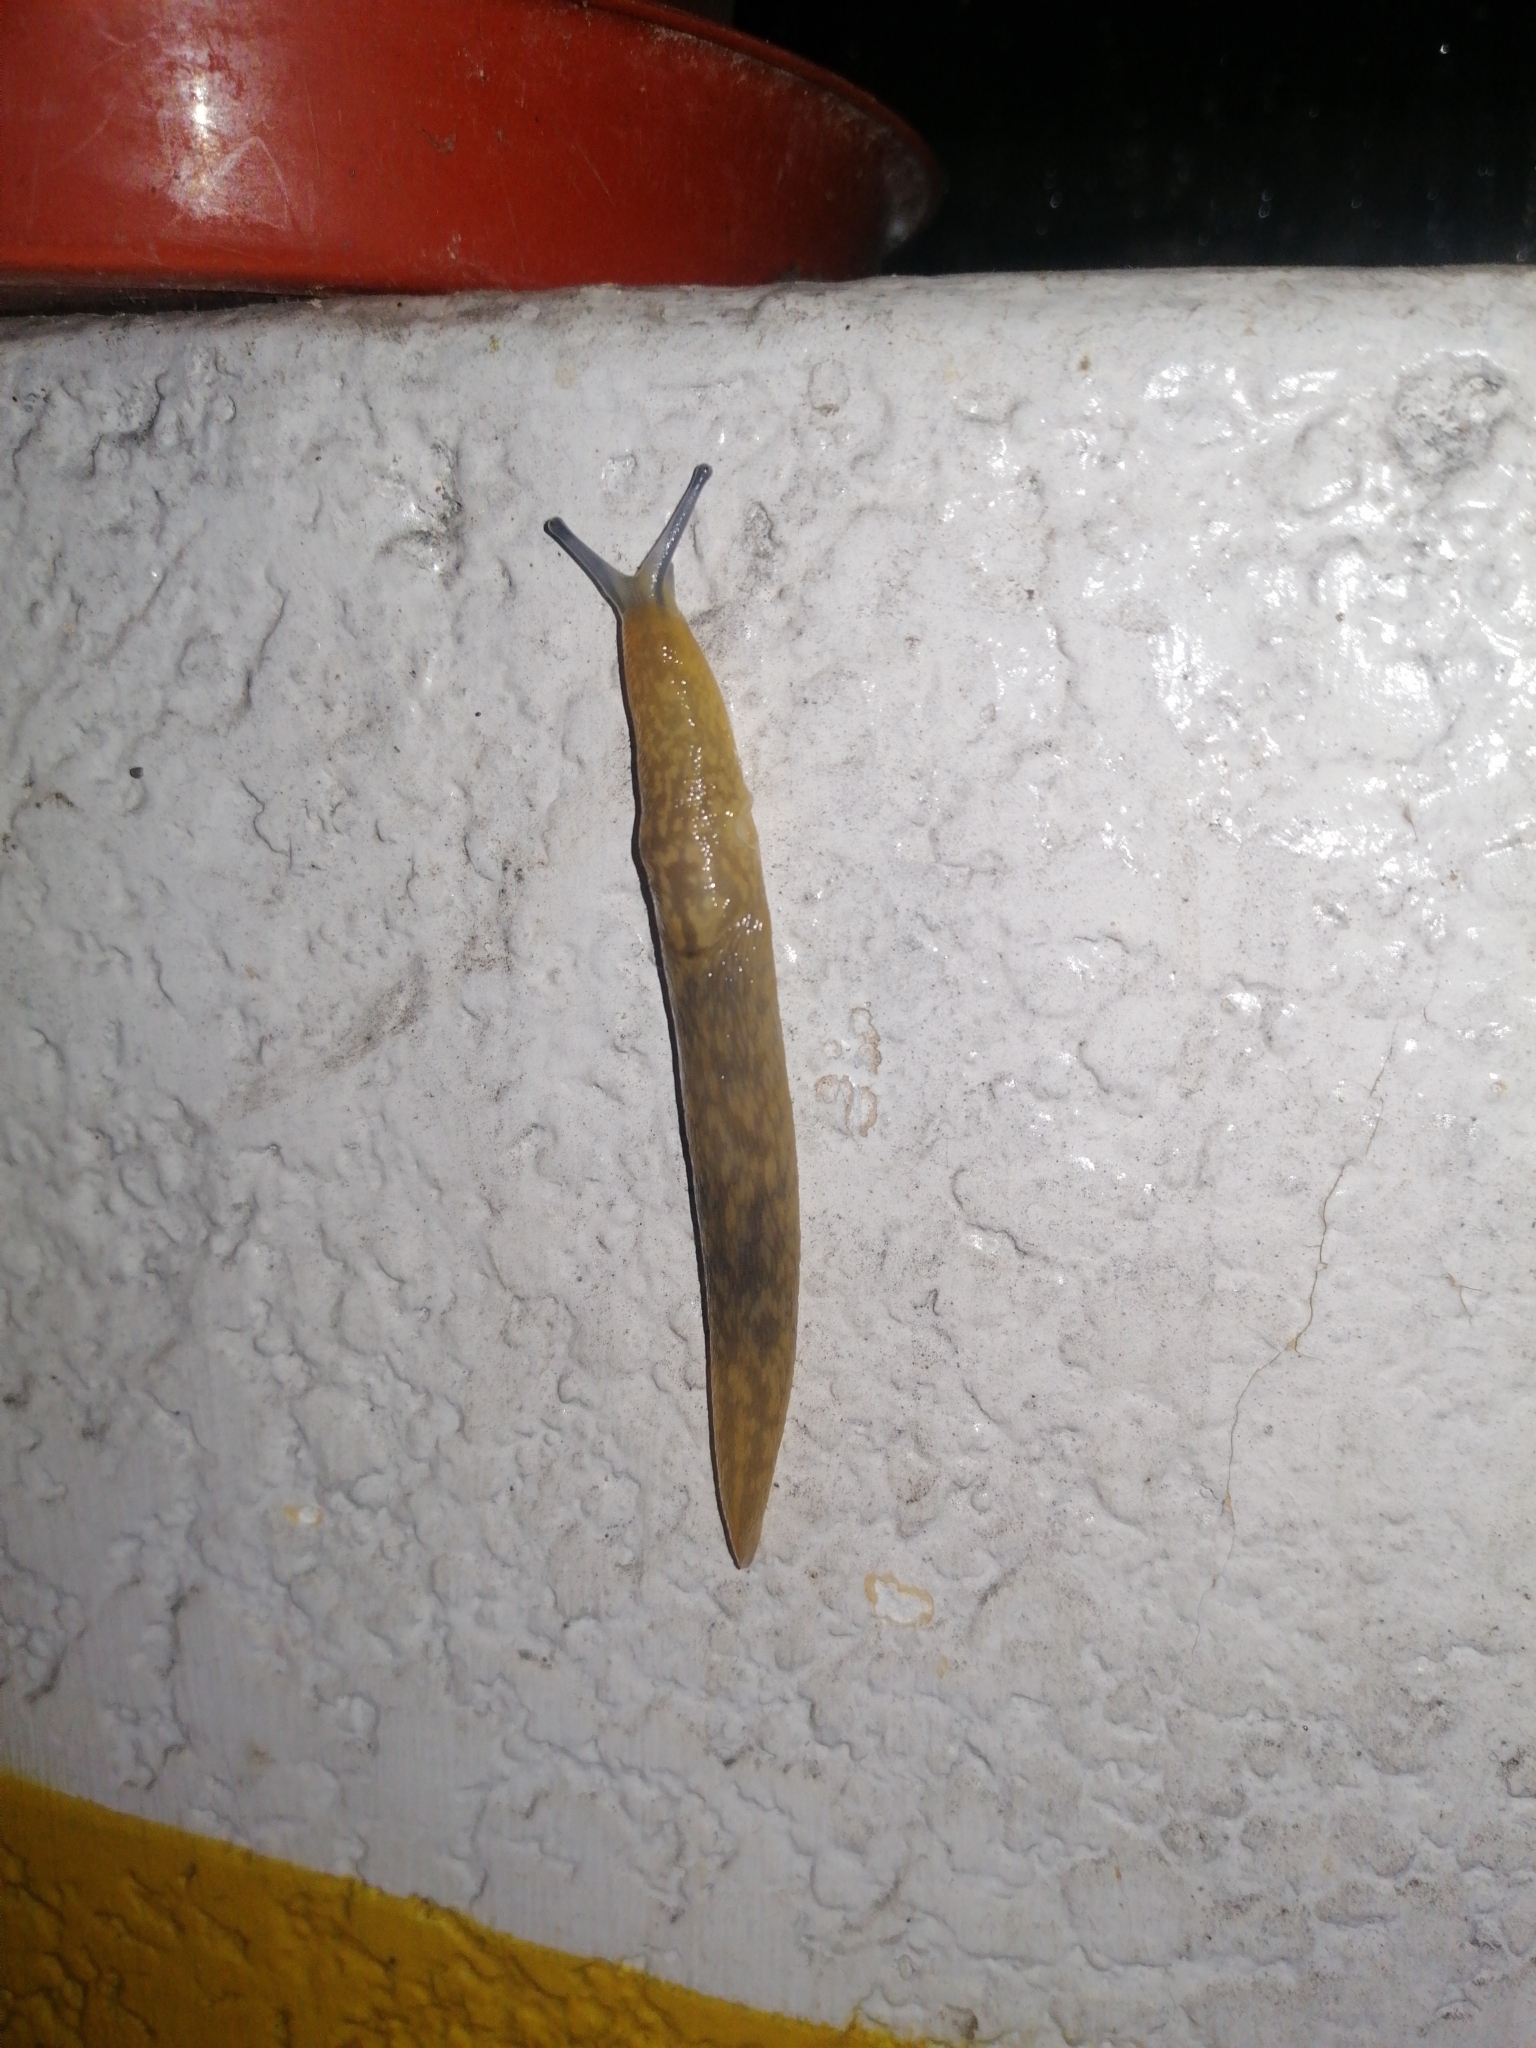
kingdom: Animalia
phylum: Mollusca
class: Gastropoda
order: Stylommatophora
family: Limacidae
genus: Limacus
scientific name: Limacus
